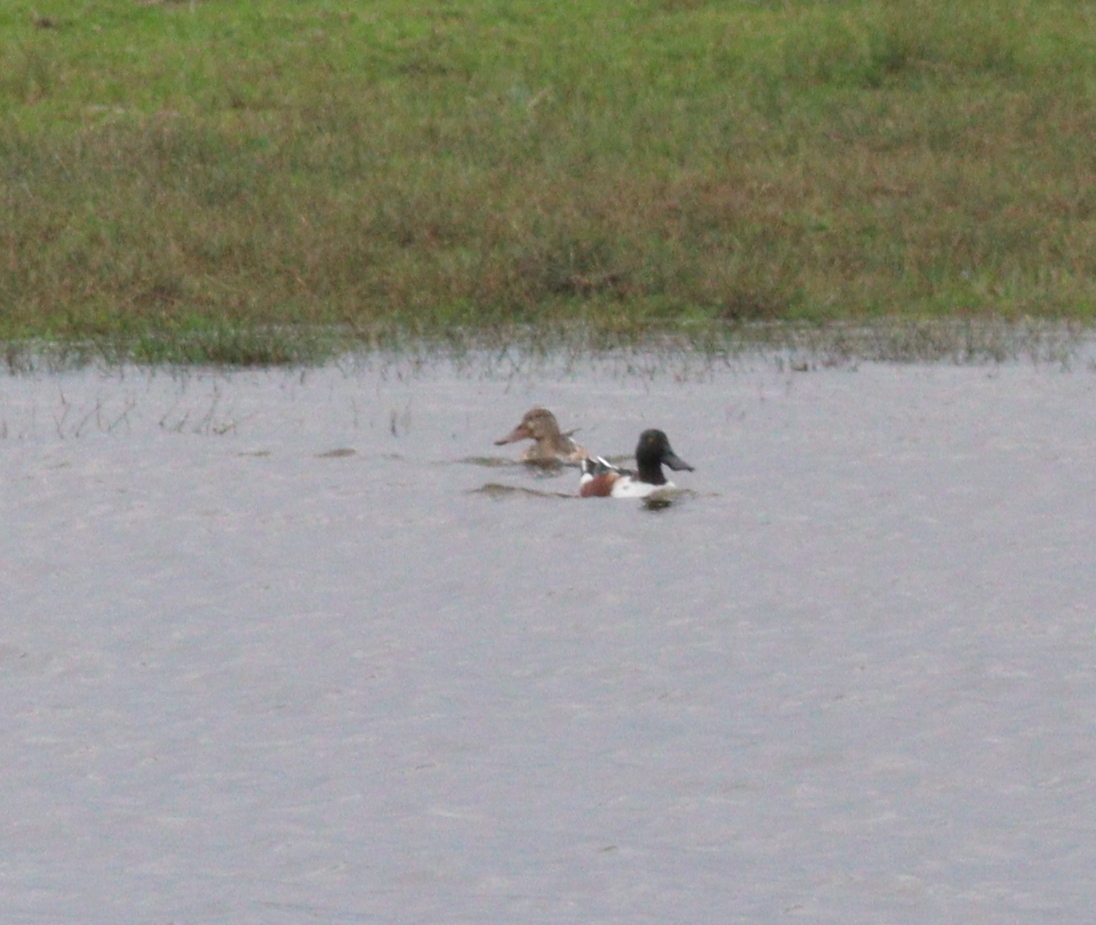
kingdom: Animalia
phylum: Chordata
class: Aves
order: Anseriformes
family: Anatidae
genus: Spatula
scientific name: Spatula clypeata
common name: Northern shoveler
